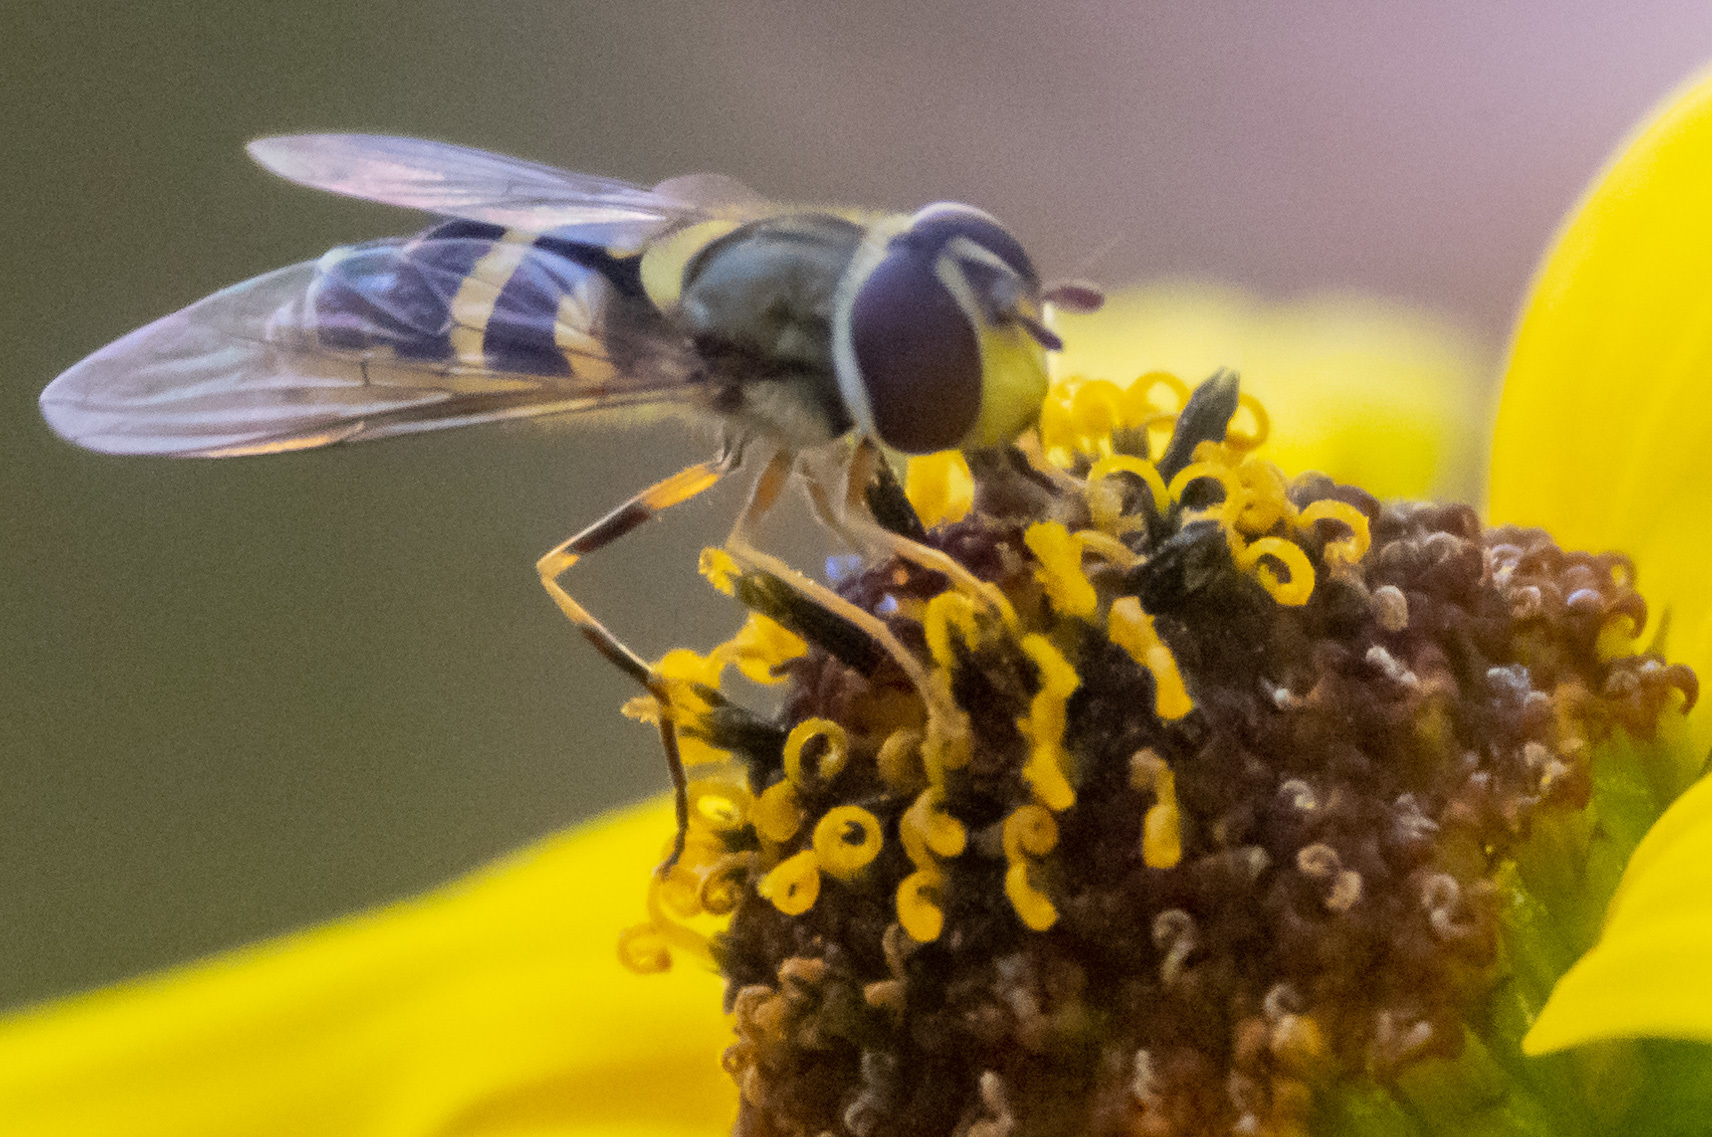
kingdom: Animalia
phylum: Arthropoda
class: Insecta
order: Diptera
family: Syrphidae
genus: Syrphus
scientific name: Syrphus rectus
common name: Yellow-legged flower fly
